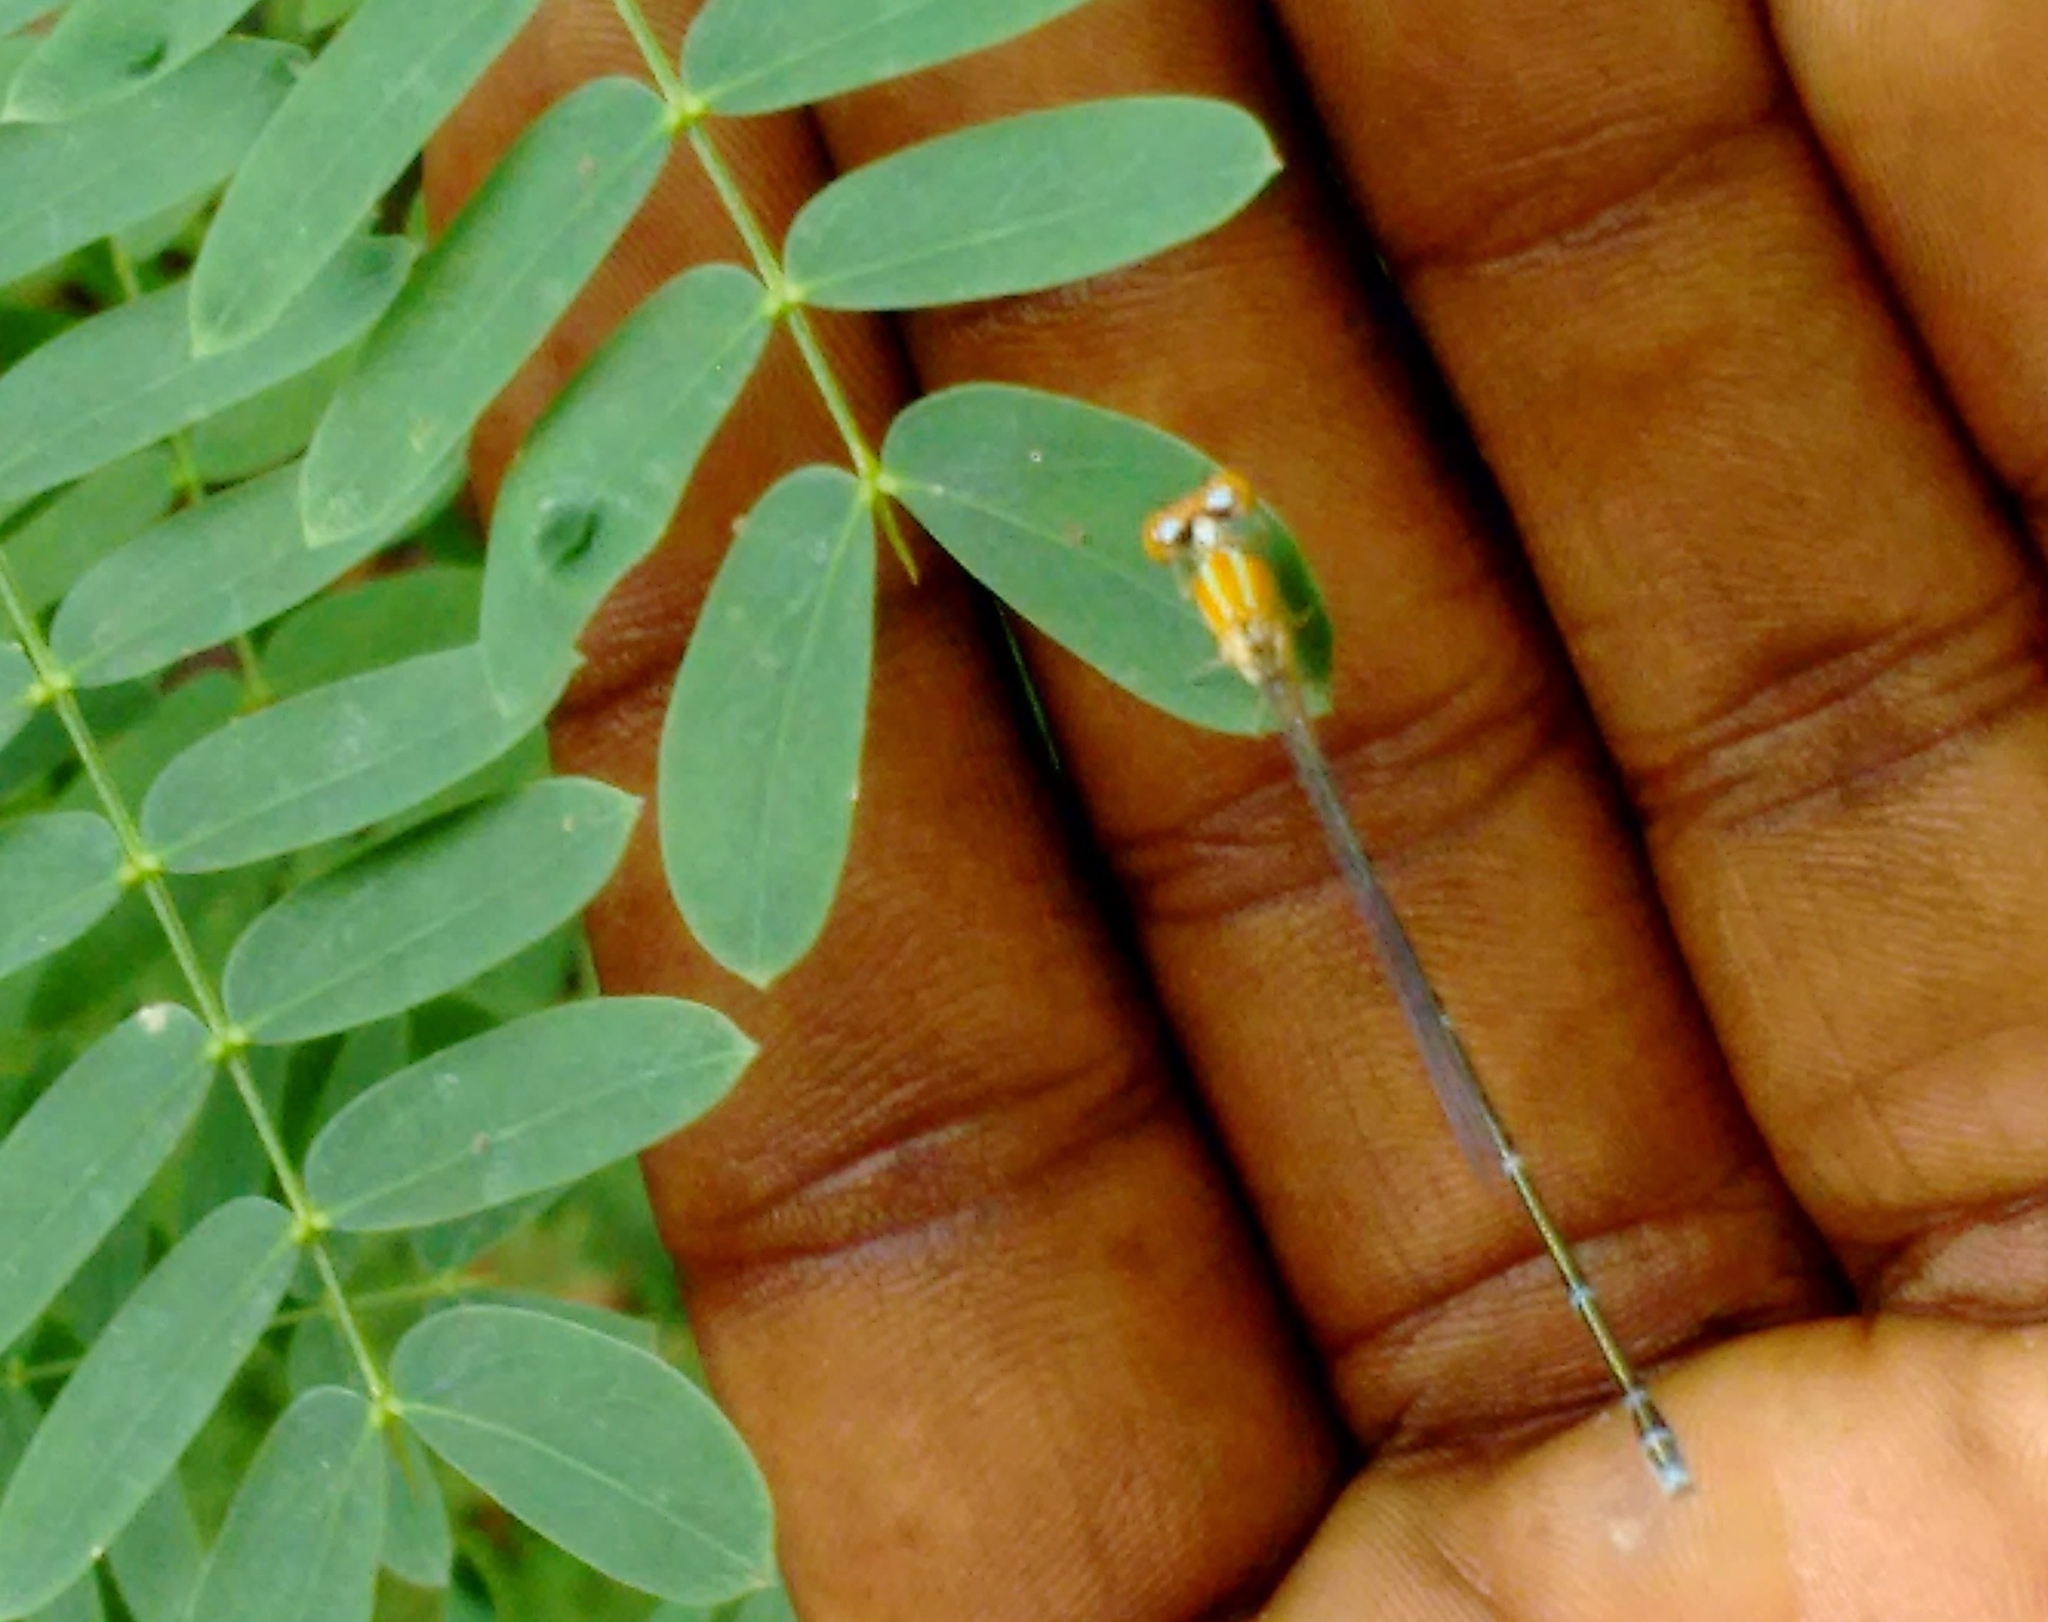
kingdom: Animalia
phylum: Arthropoda
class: Insecta
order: Odonata
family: Coenagrionidae
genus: Pseudagrion
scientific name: Pseudagrion microcephalum
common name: Blue riverdamsel
